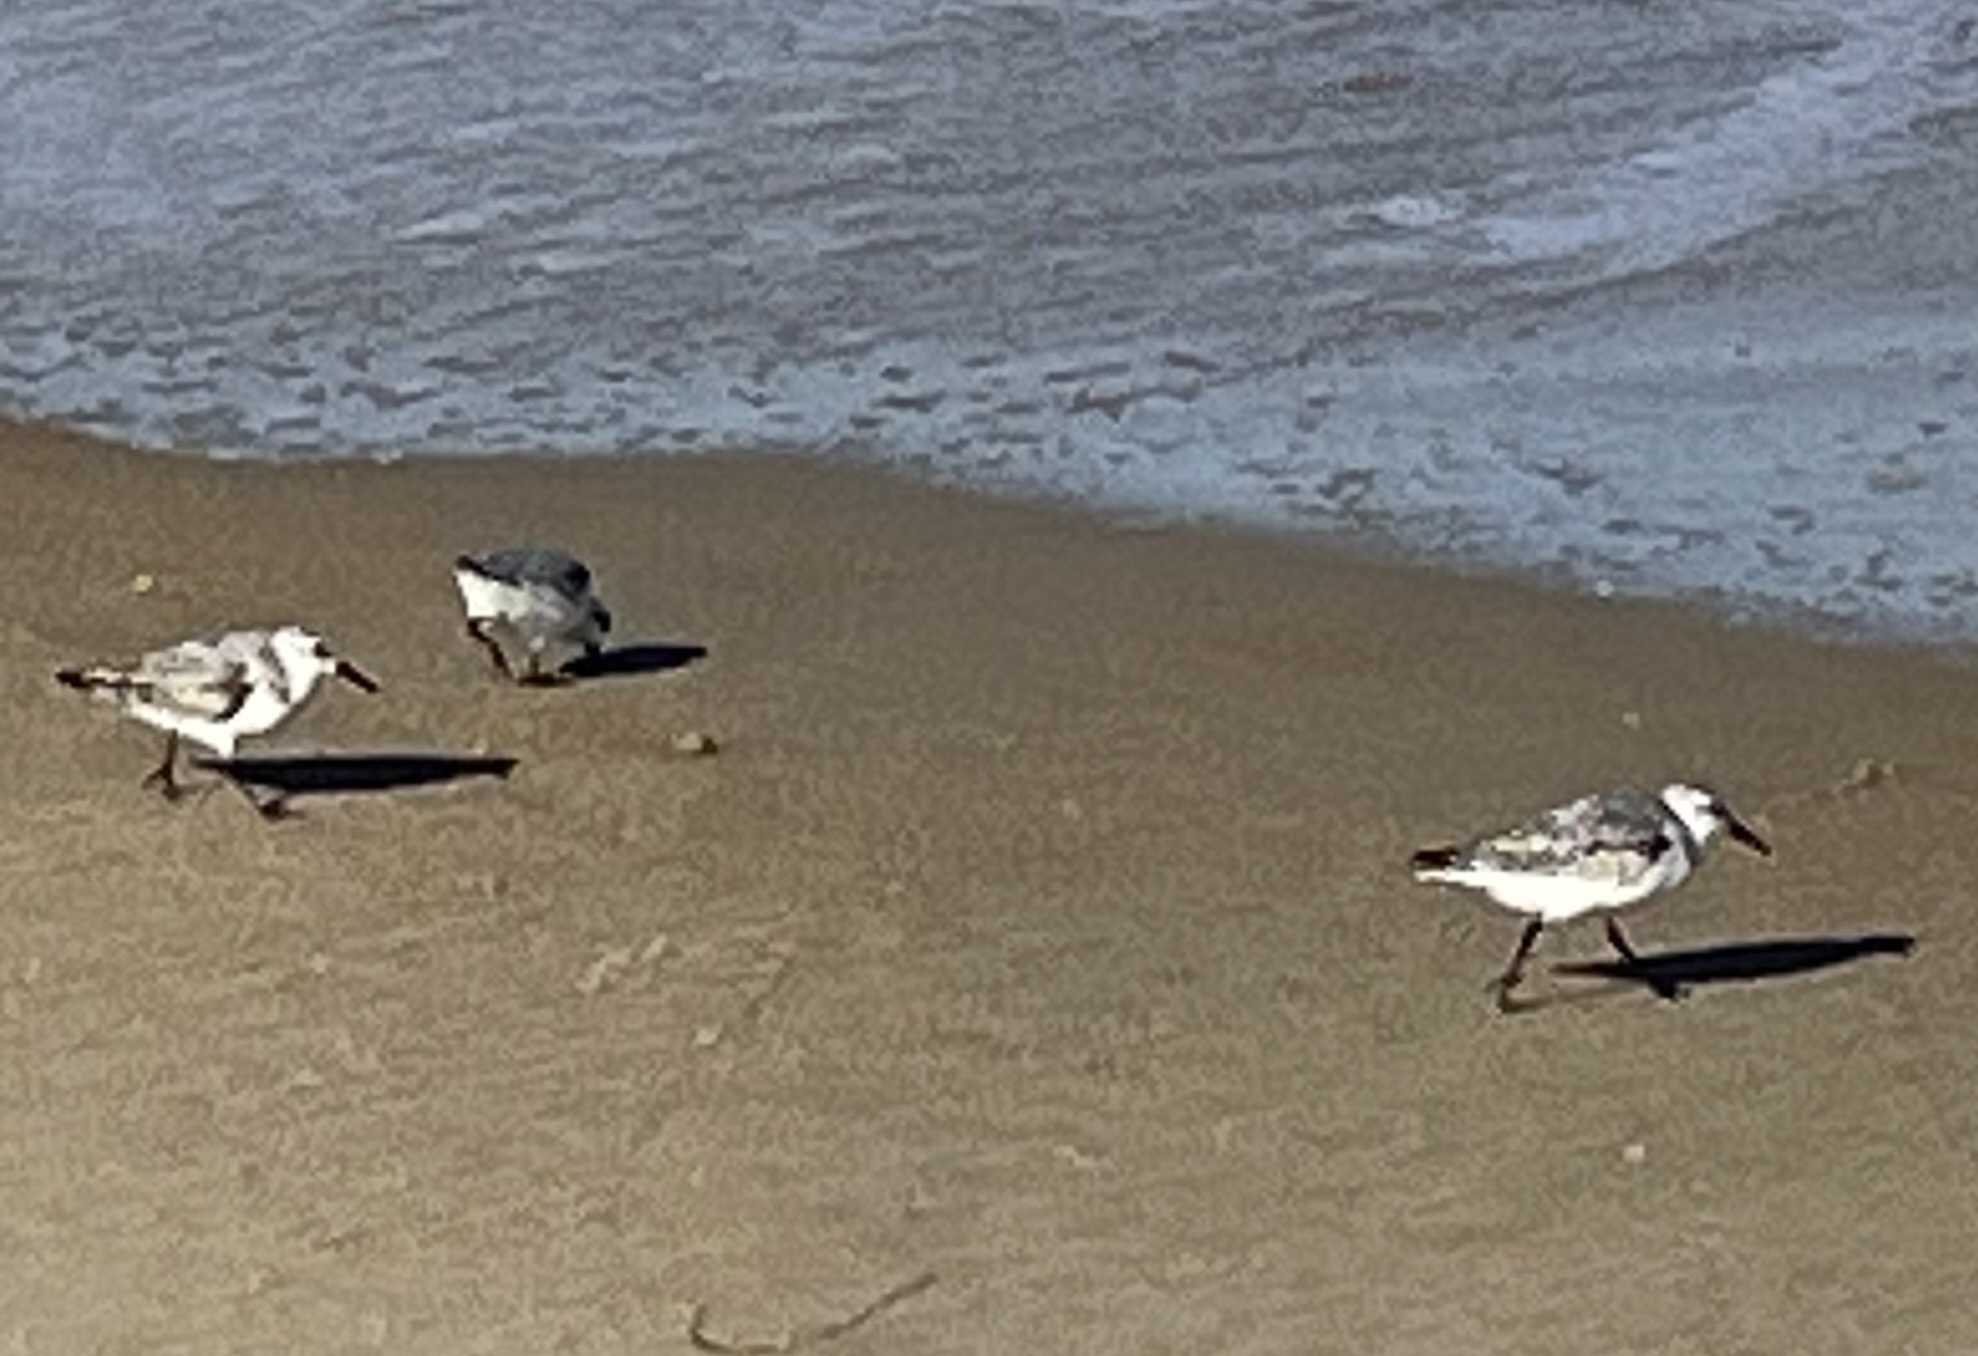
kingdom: Animalia
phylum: Chordata
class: Aves
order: Charadriiformes
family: Scolopacidae
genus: Calidris
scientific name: Calidris alba
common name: Sanderling
